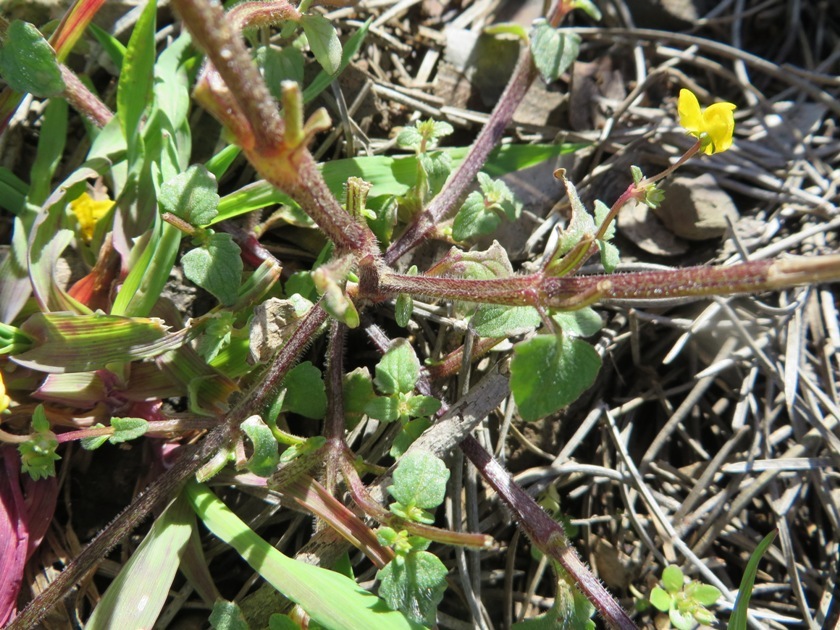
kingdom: Plantae
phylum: Tracheophyta
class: Magnoliopsida
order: Lamiales
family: Scrophulariaceae
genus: Hemimeris
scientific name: Hemimeris racemosa
